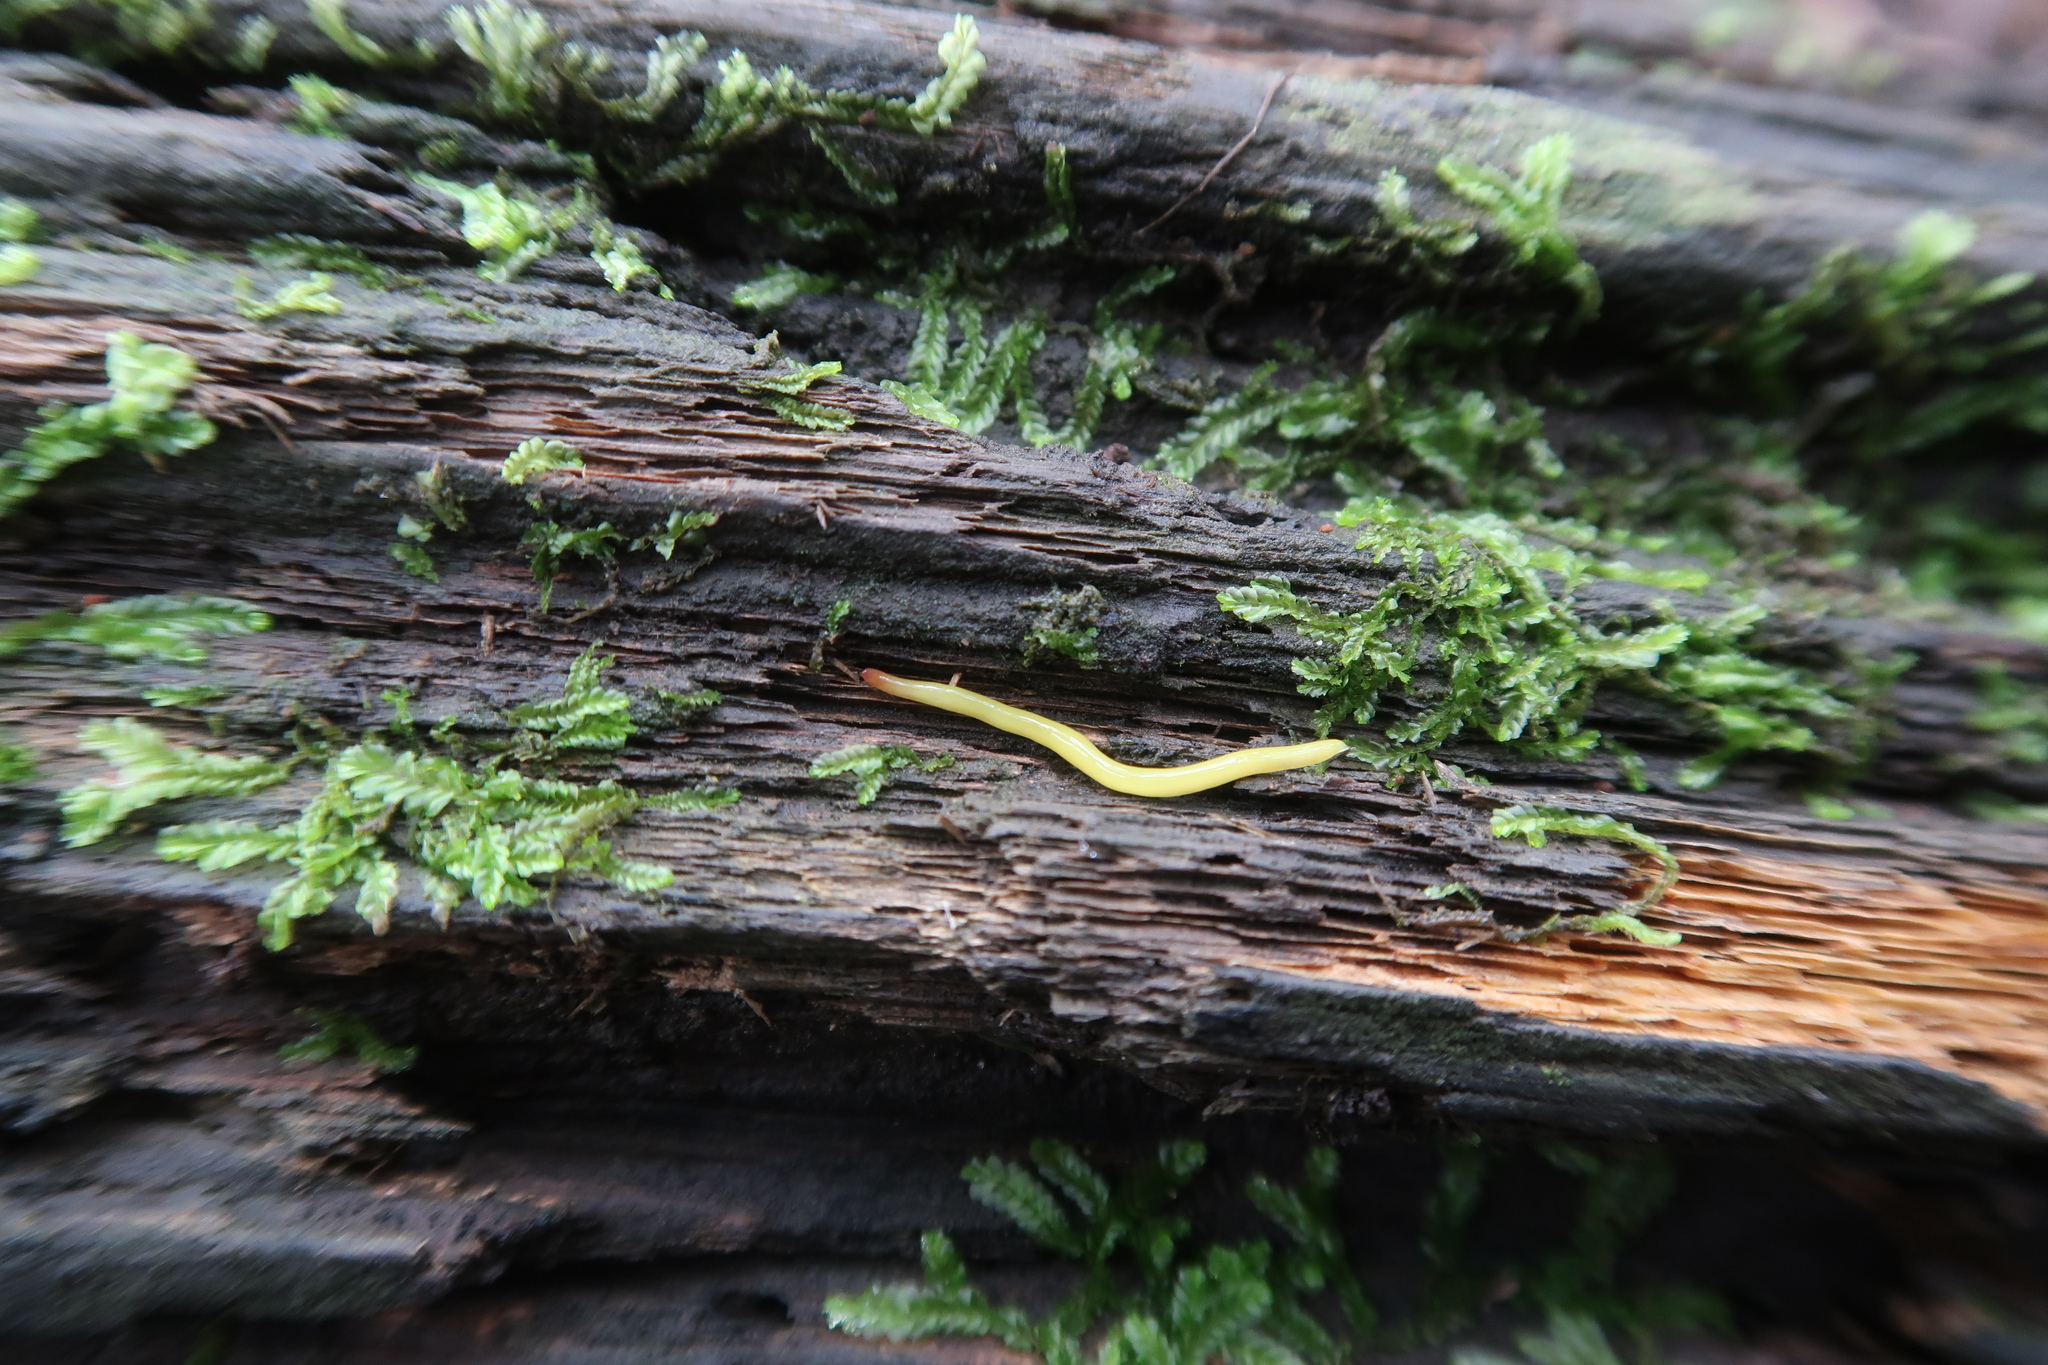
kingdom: Animalia
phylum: Platyhelminthes
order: Tricladida
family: Geoplanidae
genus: Fletchamia
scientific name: Fletchamia sugdeni
